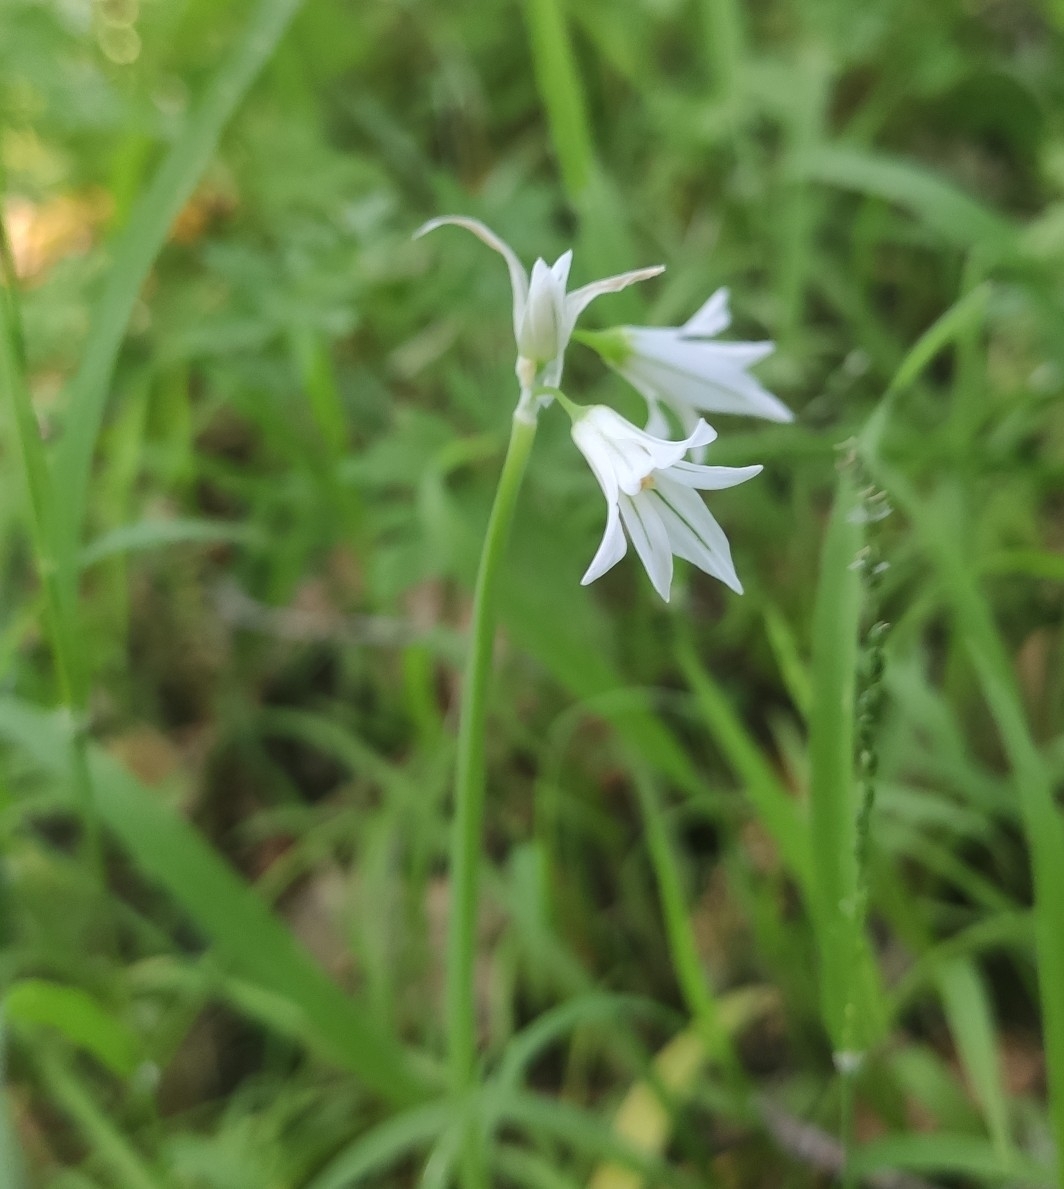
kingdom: Plantae
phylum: Tracheophyta
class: Liliopsida
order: Asparagales
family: Amaryllidaceae
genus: Allium
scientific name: Allium triquetrum
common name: Three-cornered garlic
